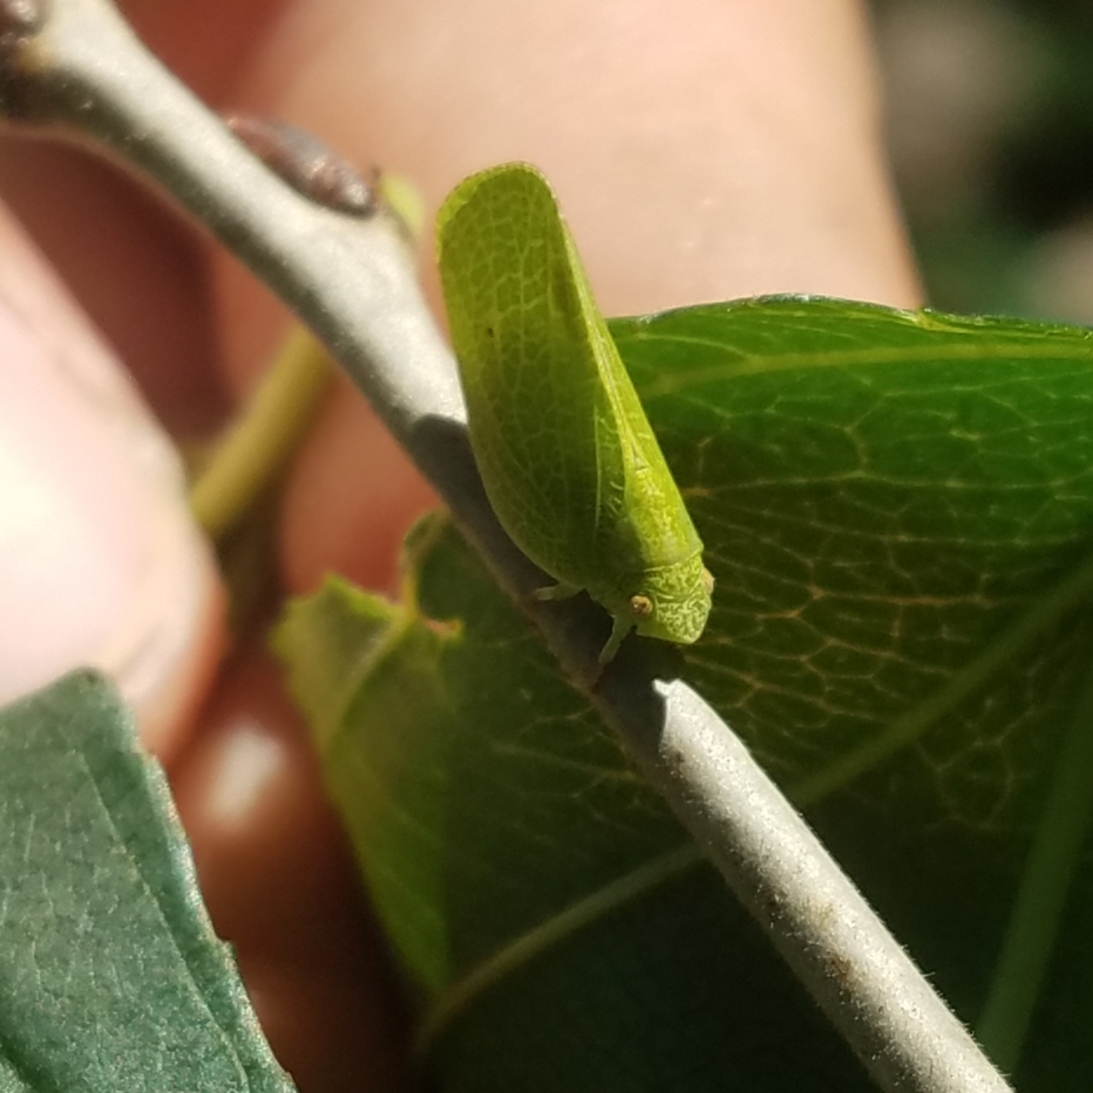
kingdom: Animalia
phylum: Arthropoda
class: Insecta
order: Hemiptera
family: Acanaloniidae
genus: Acanalonia
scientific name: Acanalonia conica
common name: Green cone-headed planthopper
